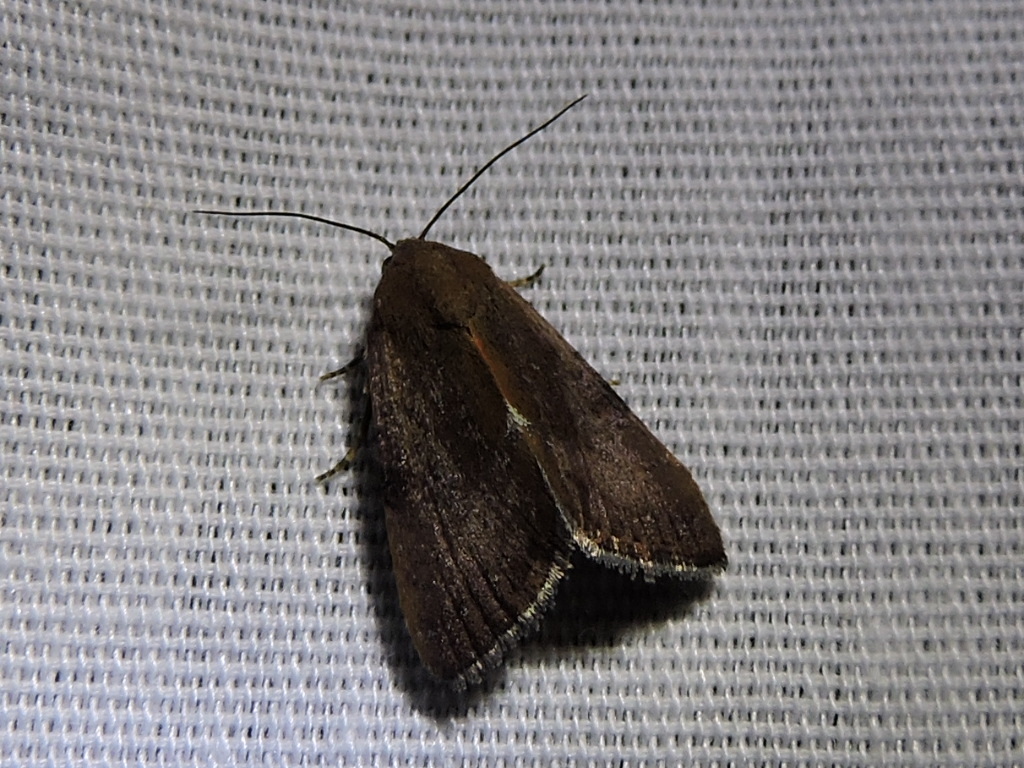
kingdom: Animalia
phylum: Arthropoda
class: Insecta
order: Lepidoptera
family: Noctuidae
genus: Galgula
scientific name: Galgula partita
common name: Wedgeling
